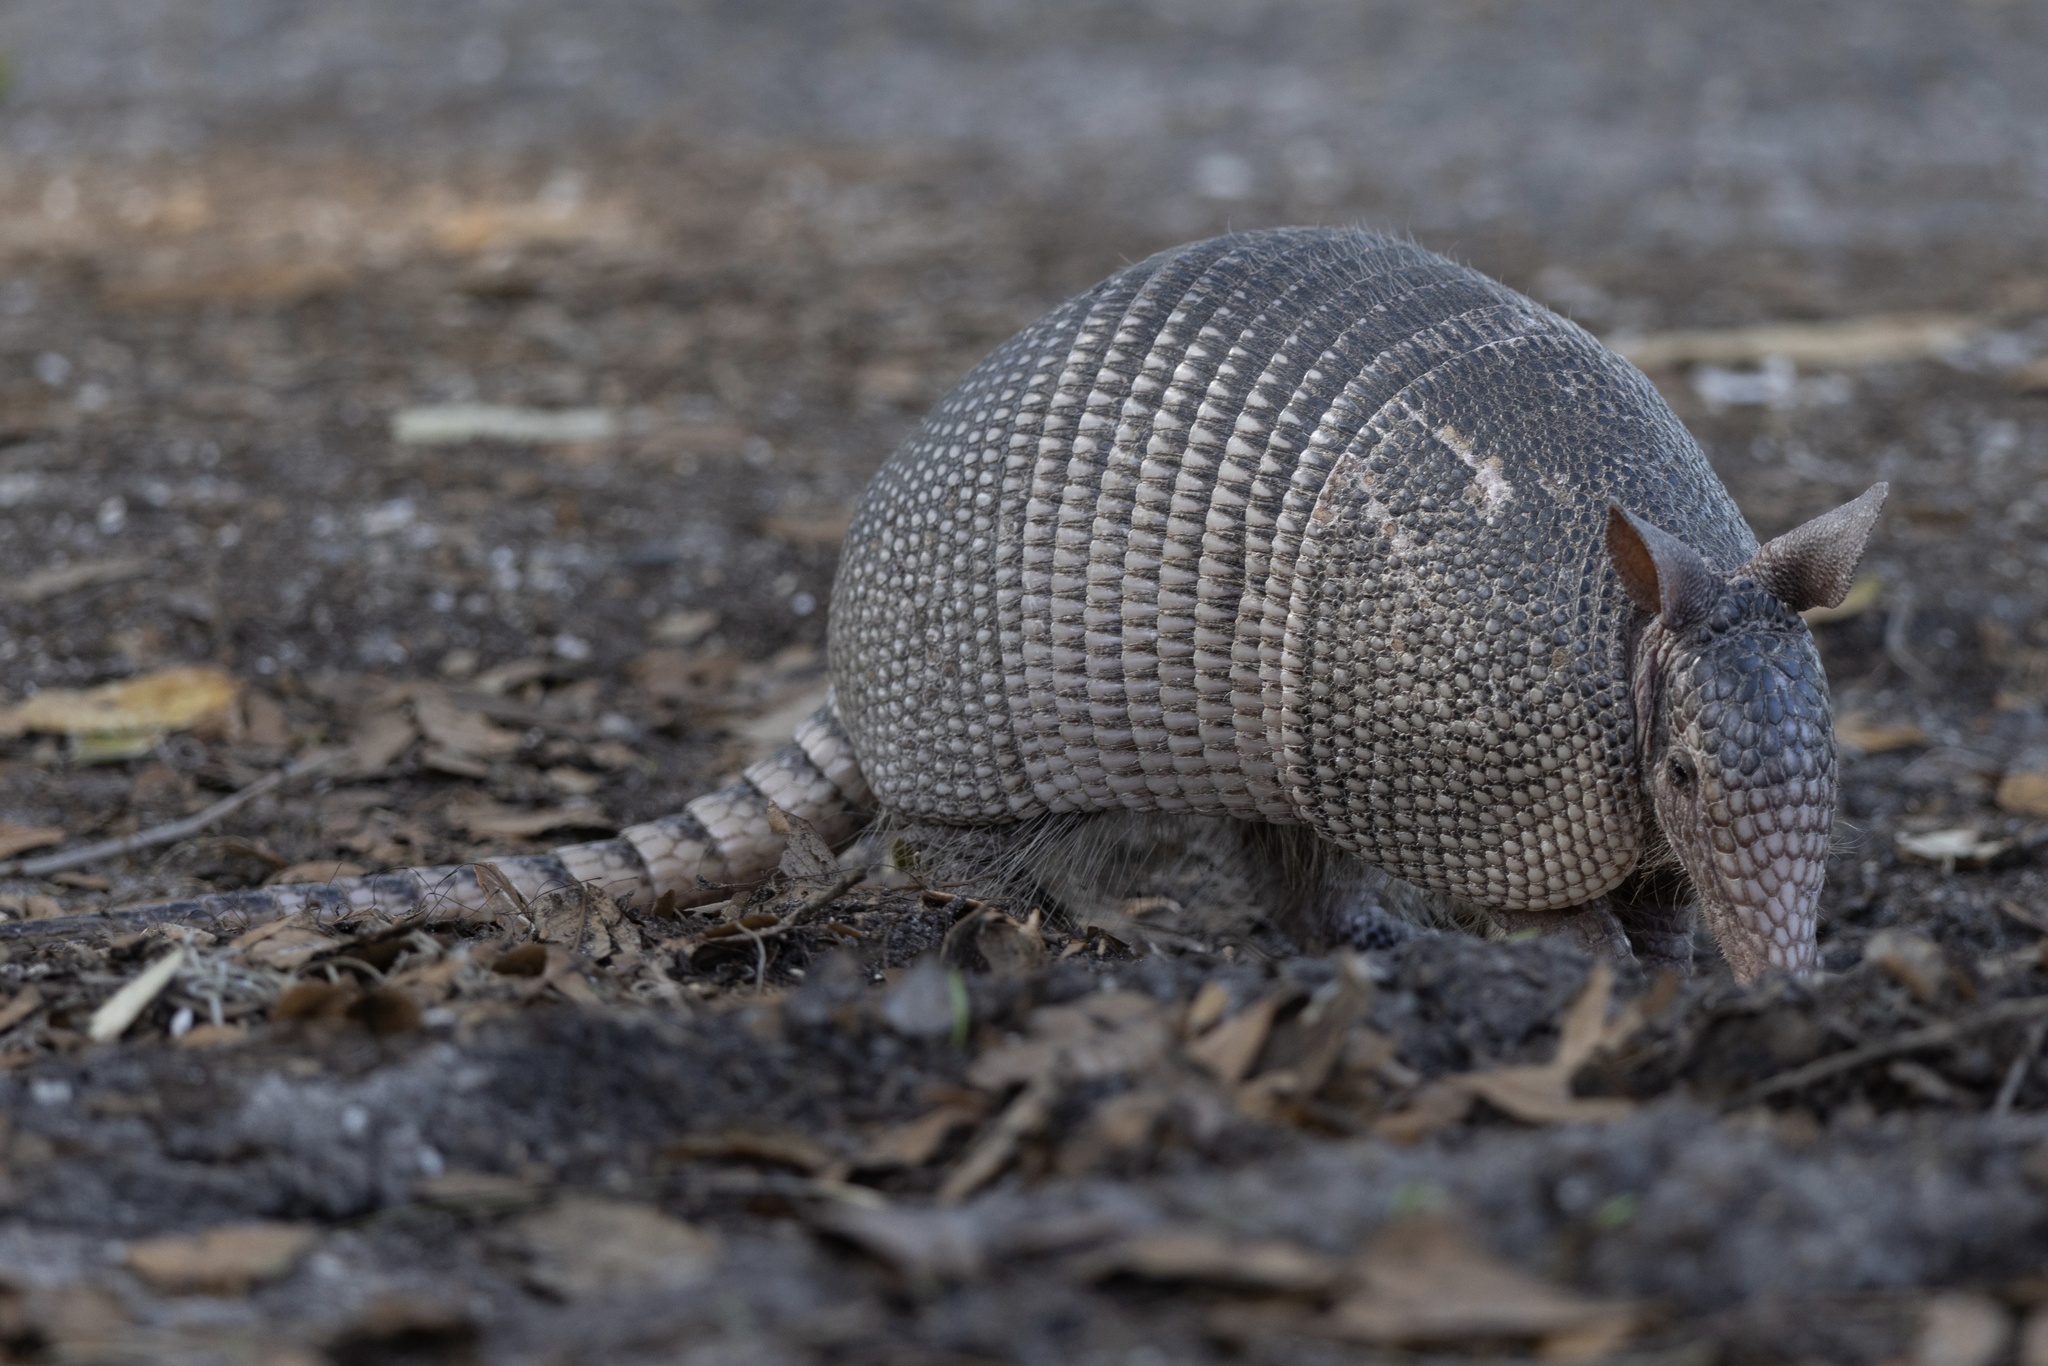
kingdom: Animalia
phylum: Chordata
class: Mammalia
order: Cingulata
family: Dasypodidae
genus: Dasypus
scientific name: Dasypus novemcinctus
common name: Nine-banded armadillo
